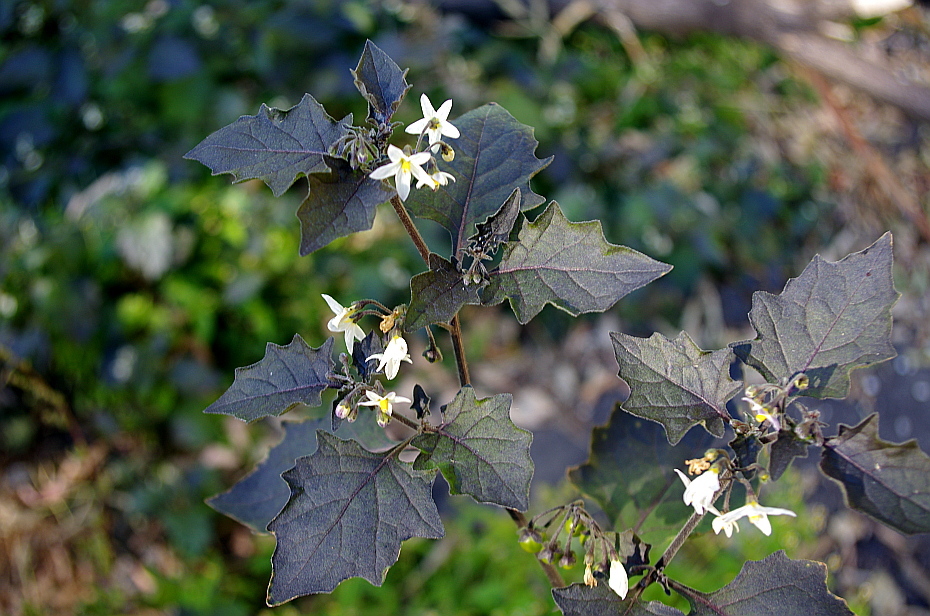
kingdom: Plantae
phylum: Tracheophyta
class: Magnoliopsida
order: Solanales
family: Solanaceae
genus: Solanum
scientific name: Solanum nigrum
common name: Black nightshade
